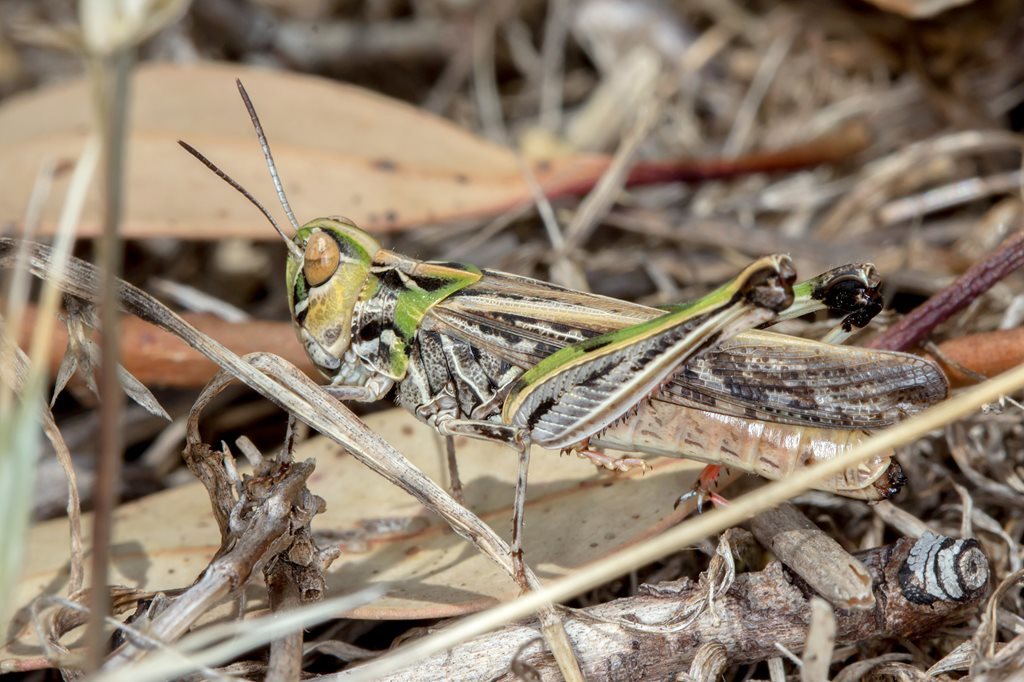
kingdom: Animalia
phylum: Arthropoda
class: Insecta
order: Orthoptera
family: Acrididae
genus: Austroicetes
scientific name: Austroicetes vulgaris
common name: Southeastern austroicetes
